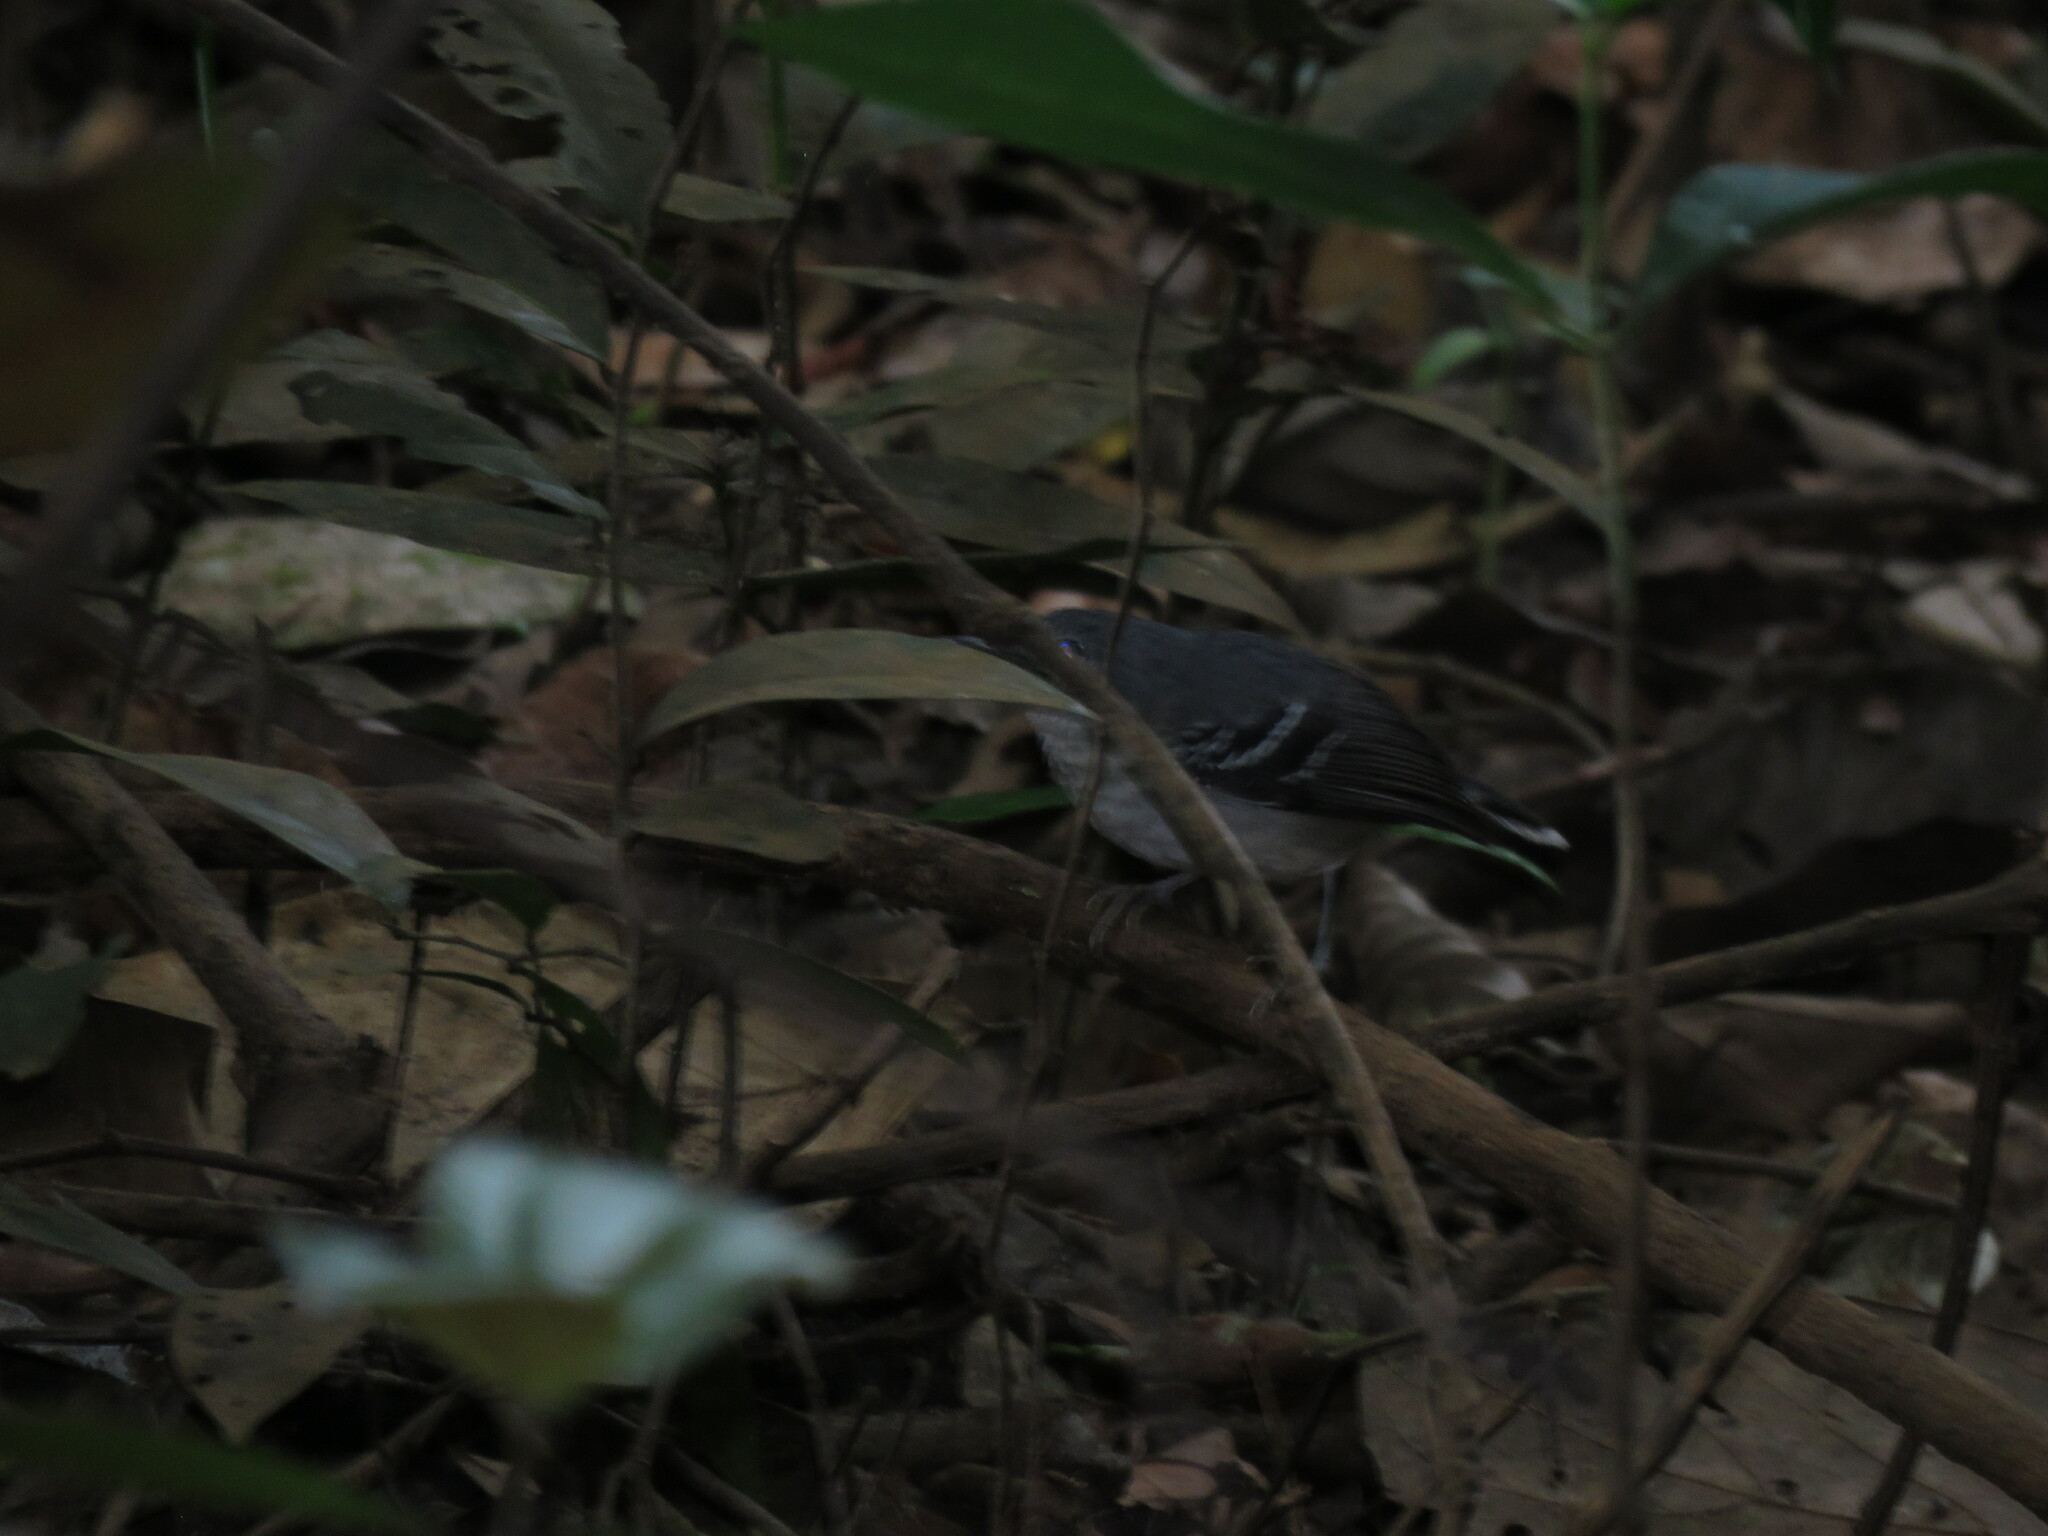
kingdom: Animalia
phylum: Chordata
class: Aves
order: Passeriformes
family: Thamnophilidae
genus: Hypocnemoides
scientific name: Hypocnemoides maculicauda
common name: Band-tailed antbird
